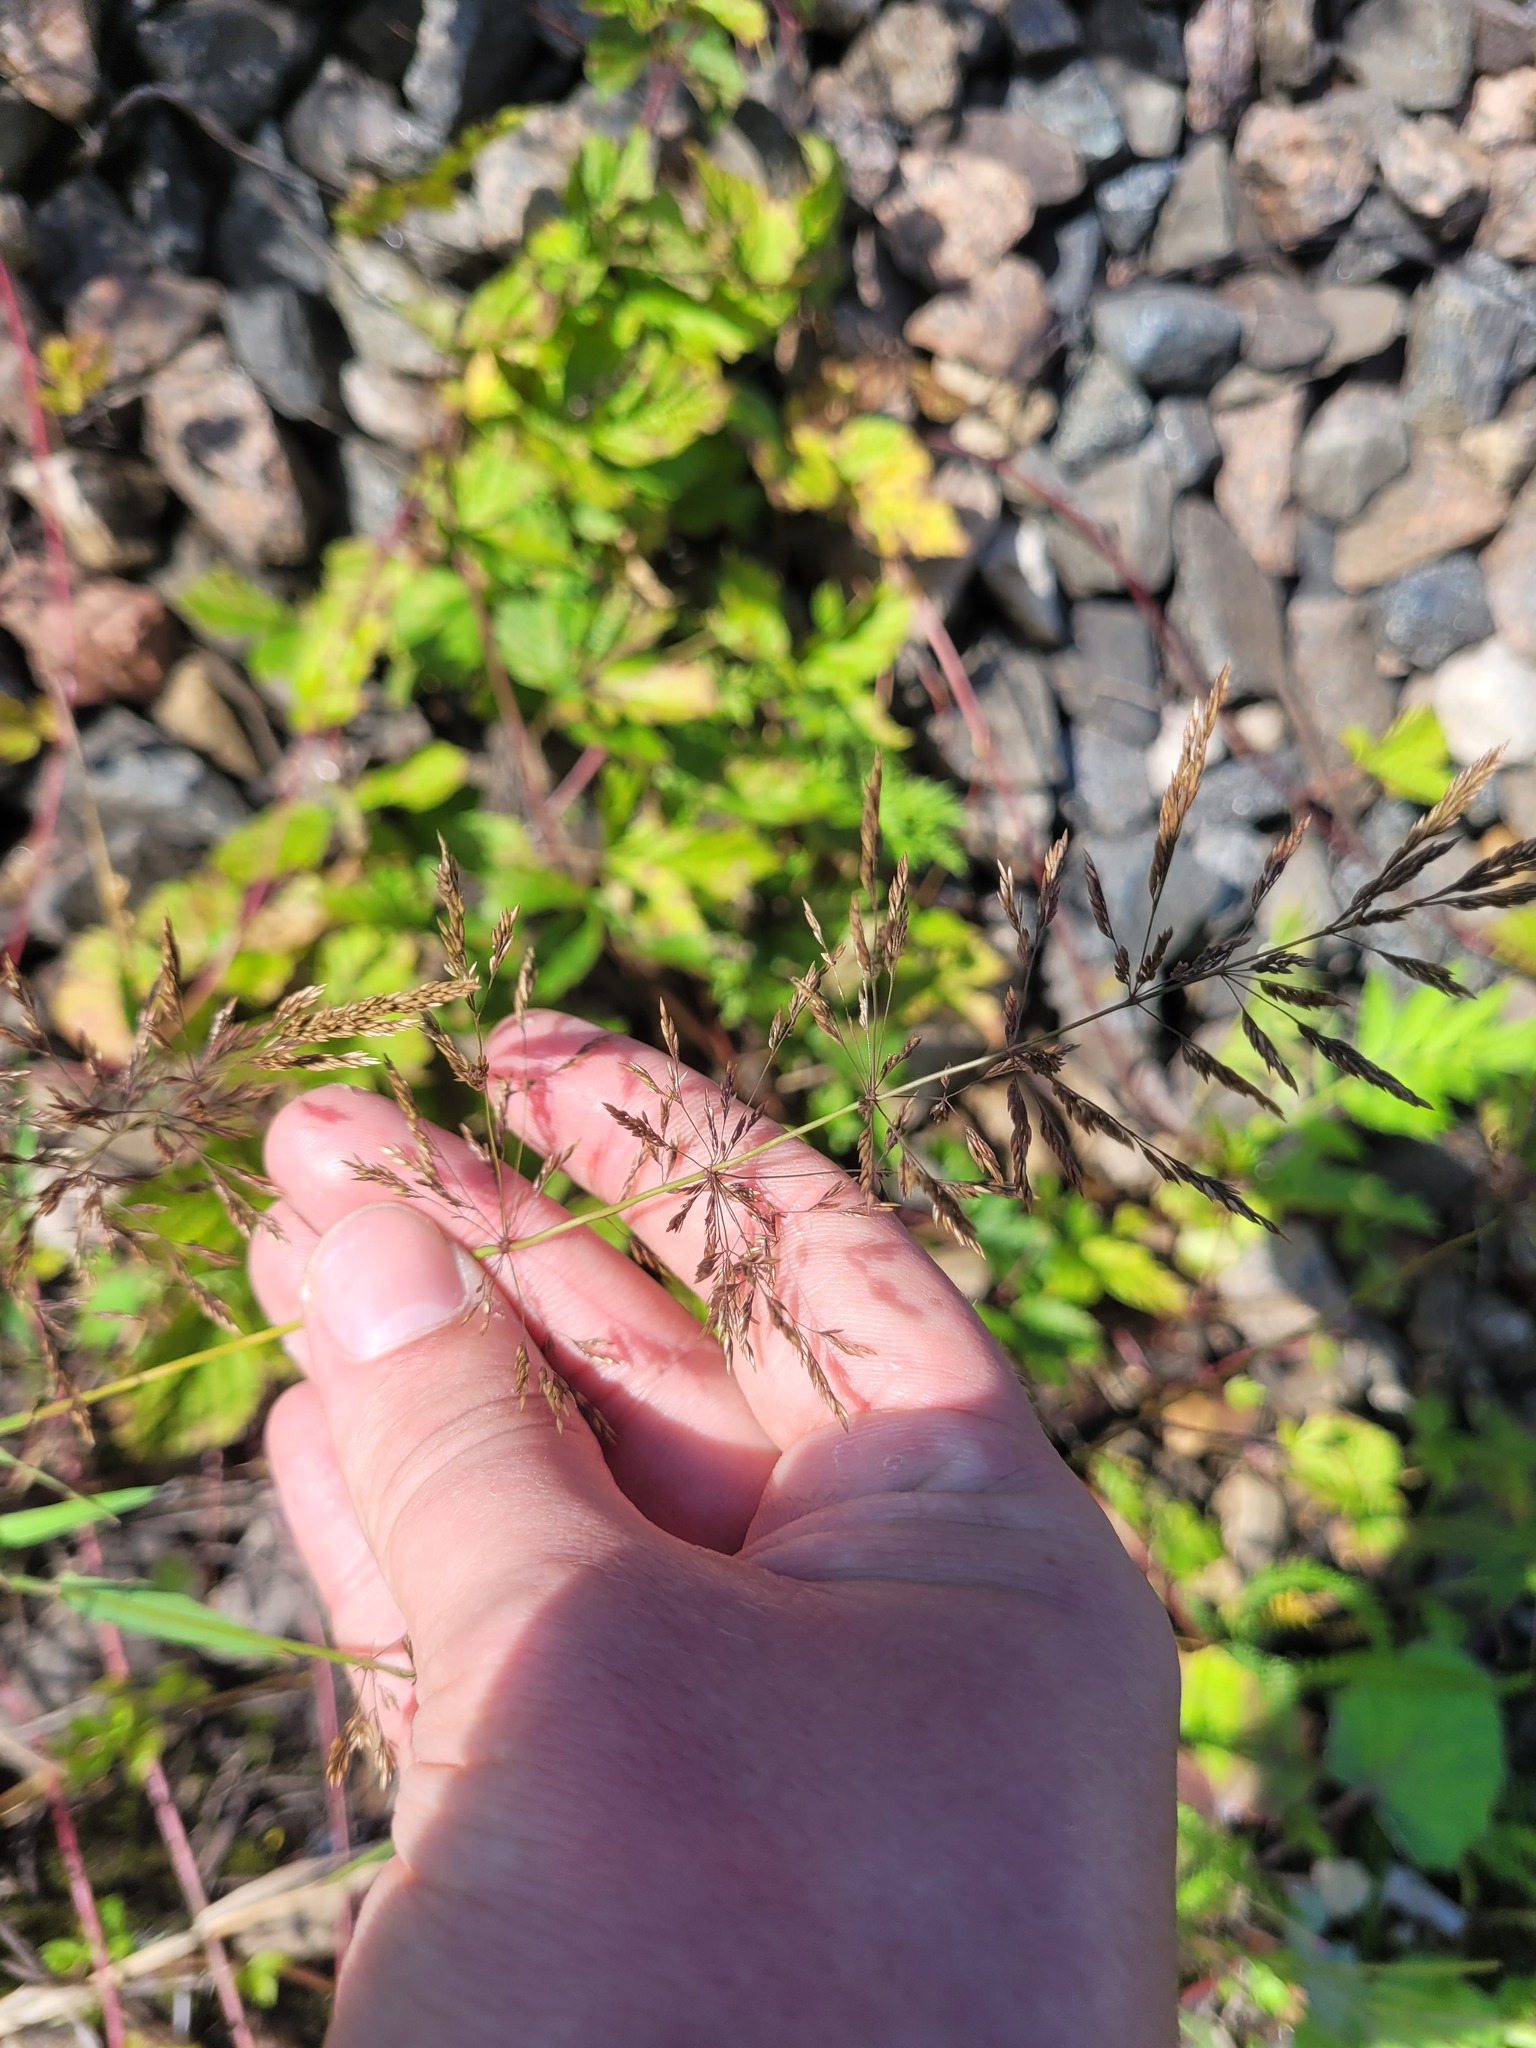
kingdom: Plantae
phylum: Tracheophyta
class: Liliopsida
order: Poales
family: Poaceae
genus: Agrostis
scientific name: Agrostis gigantea
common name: Black bent
